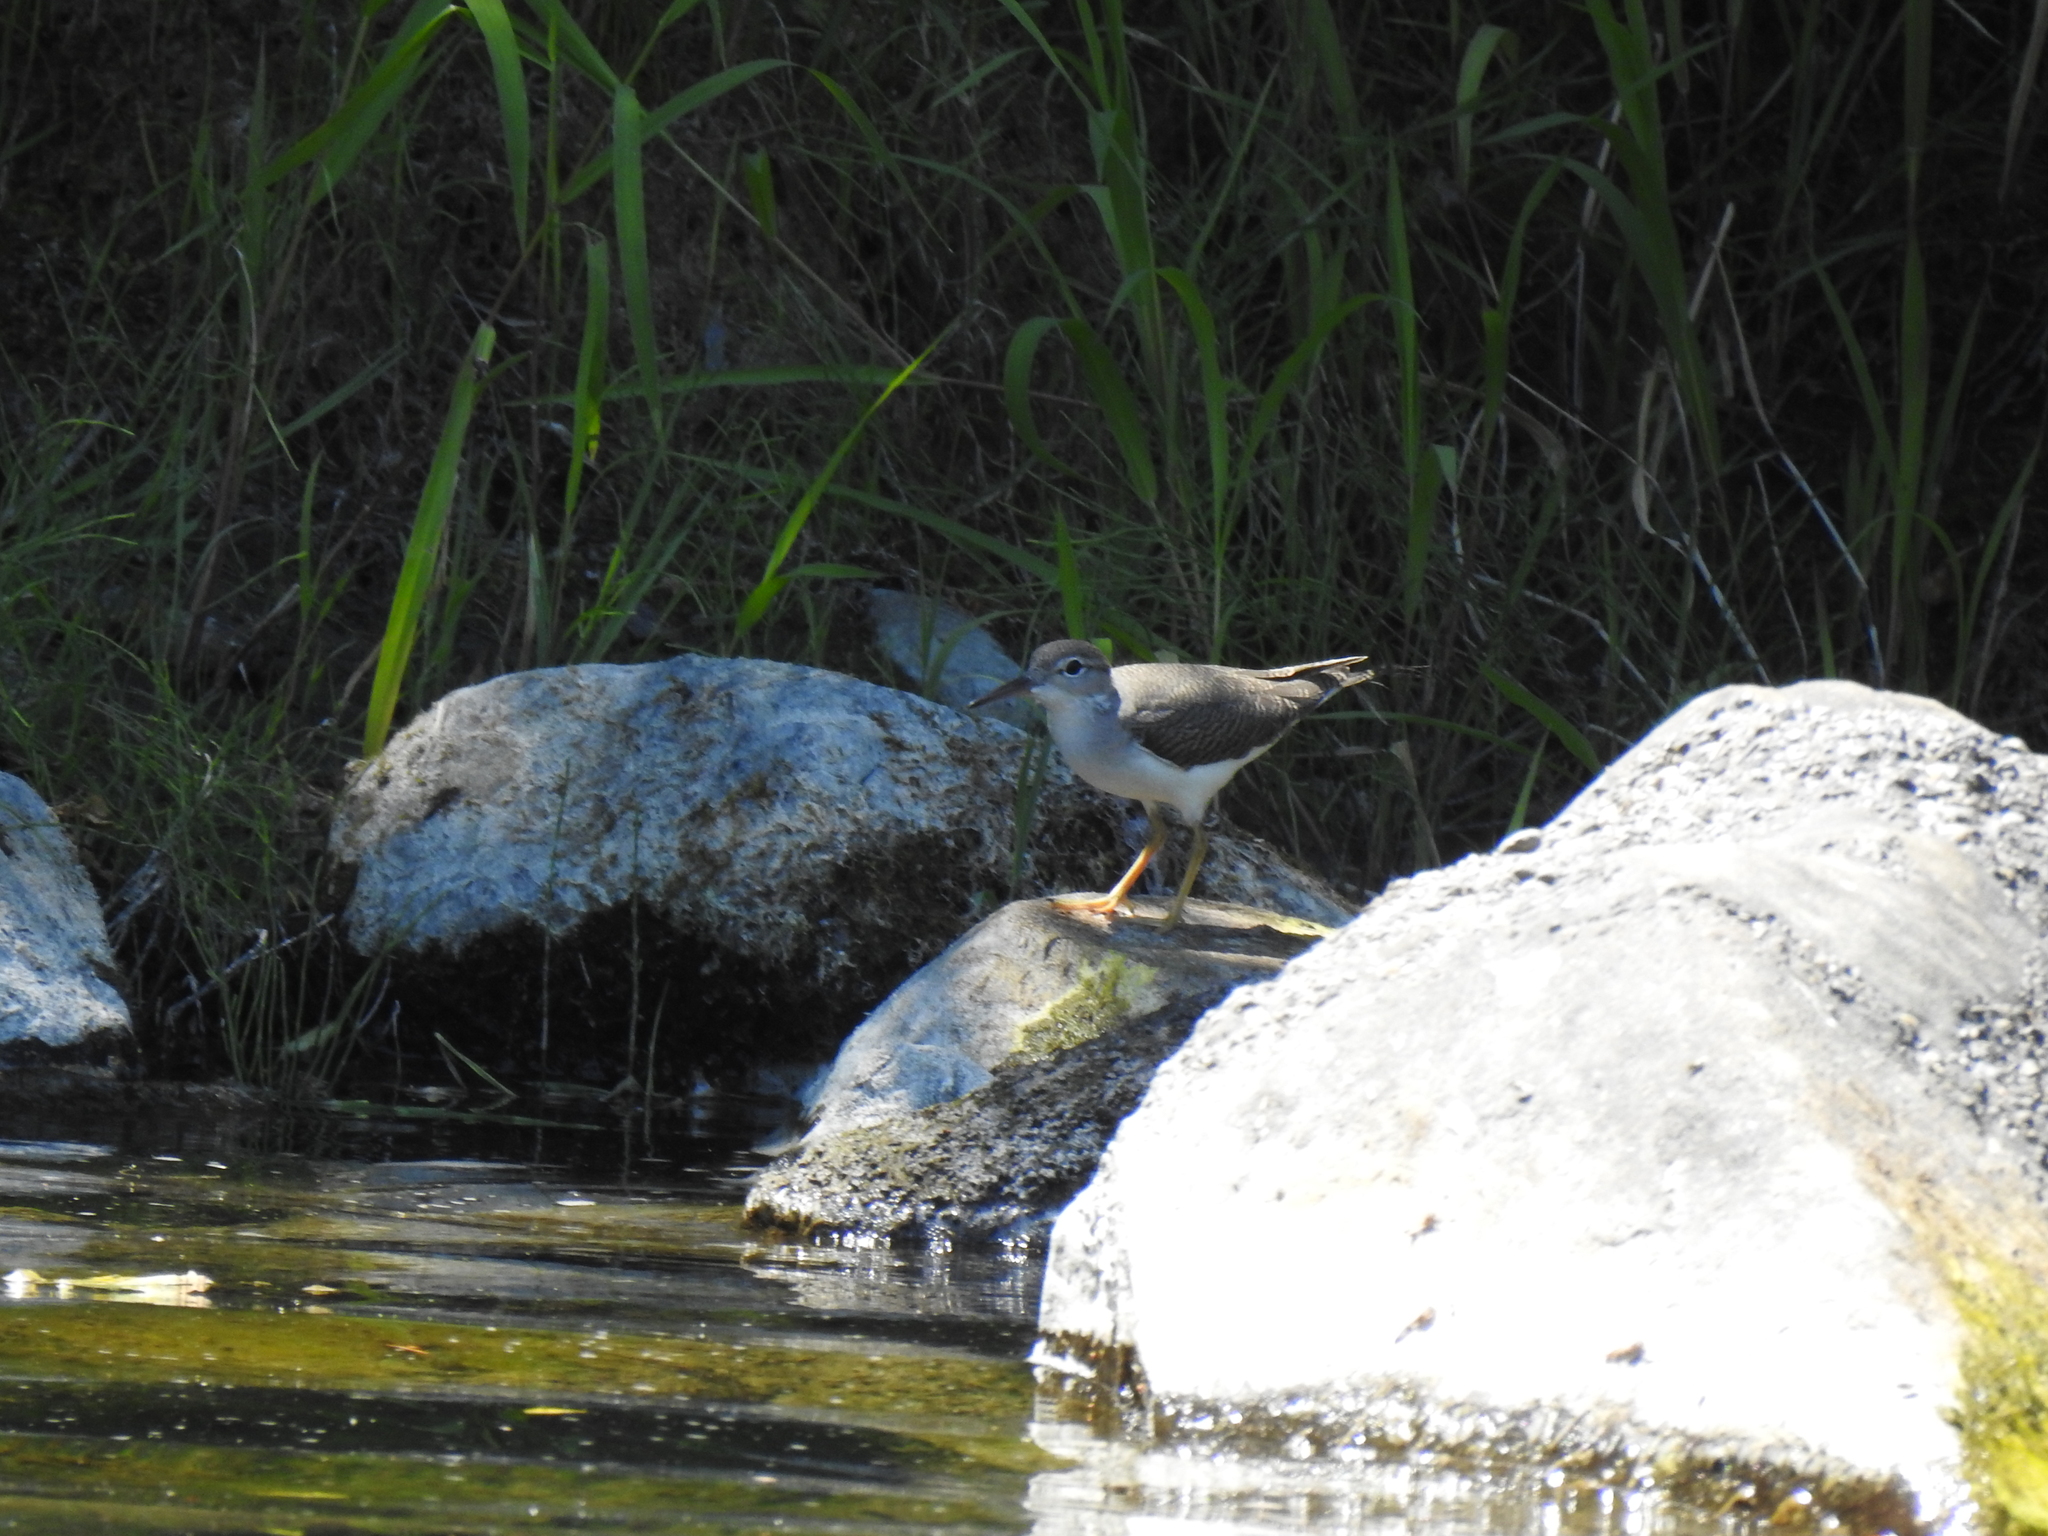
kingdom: Animalia
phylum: Chordata
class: Aves
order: Charadriiformes
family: Scolopacidae
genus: Actitis
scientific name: Actitis macularius
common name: Spotted sandpiper
